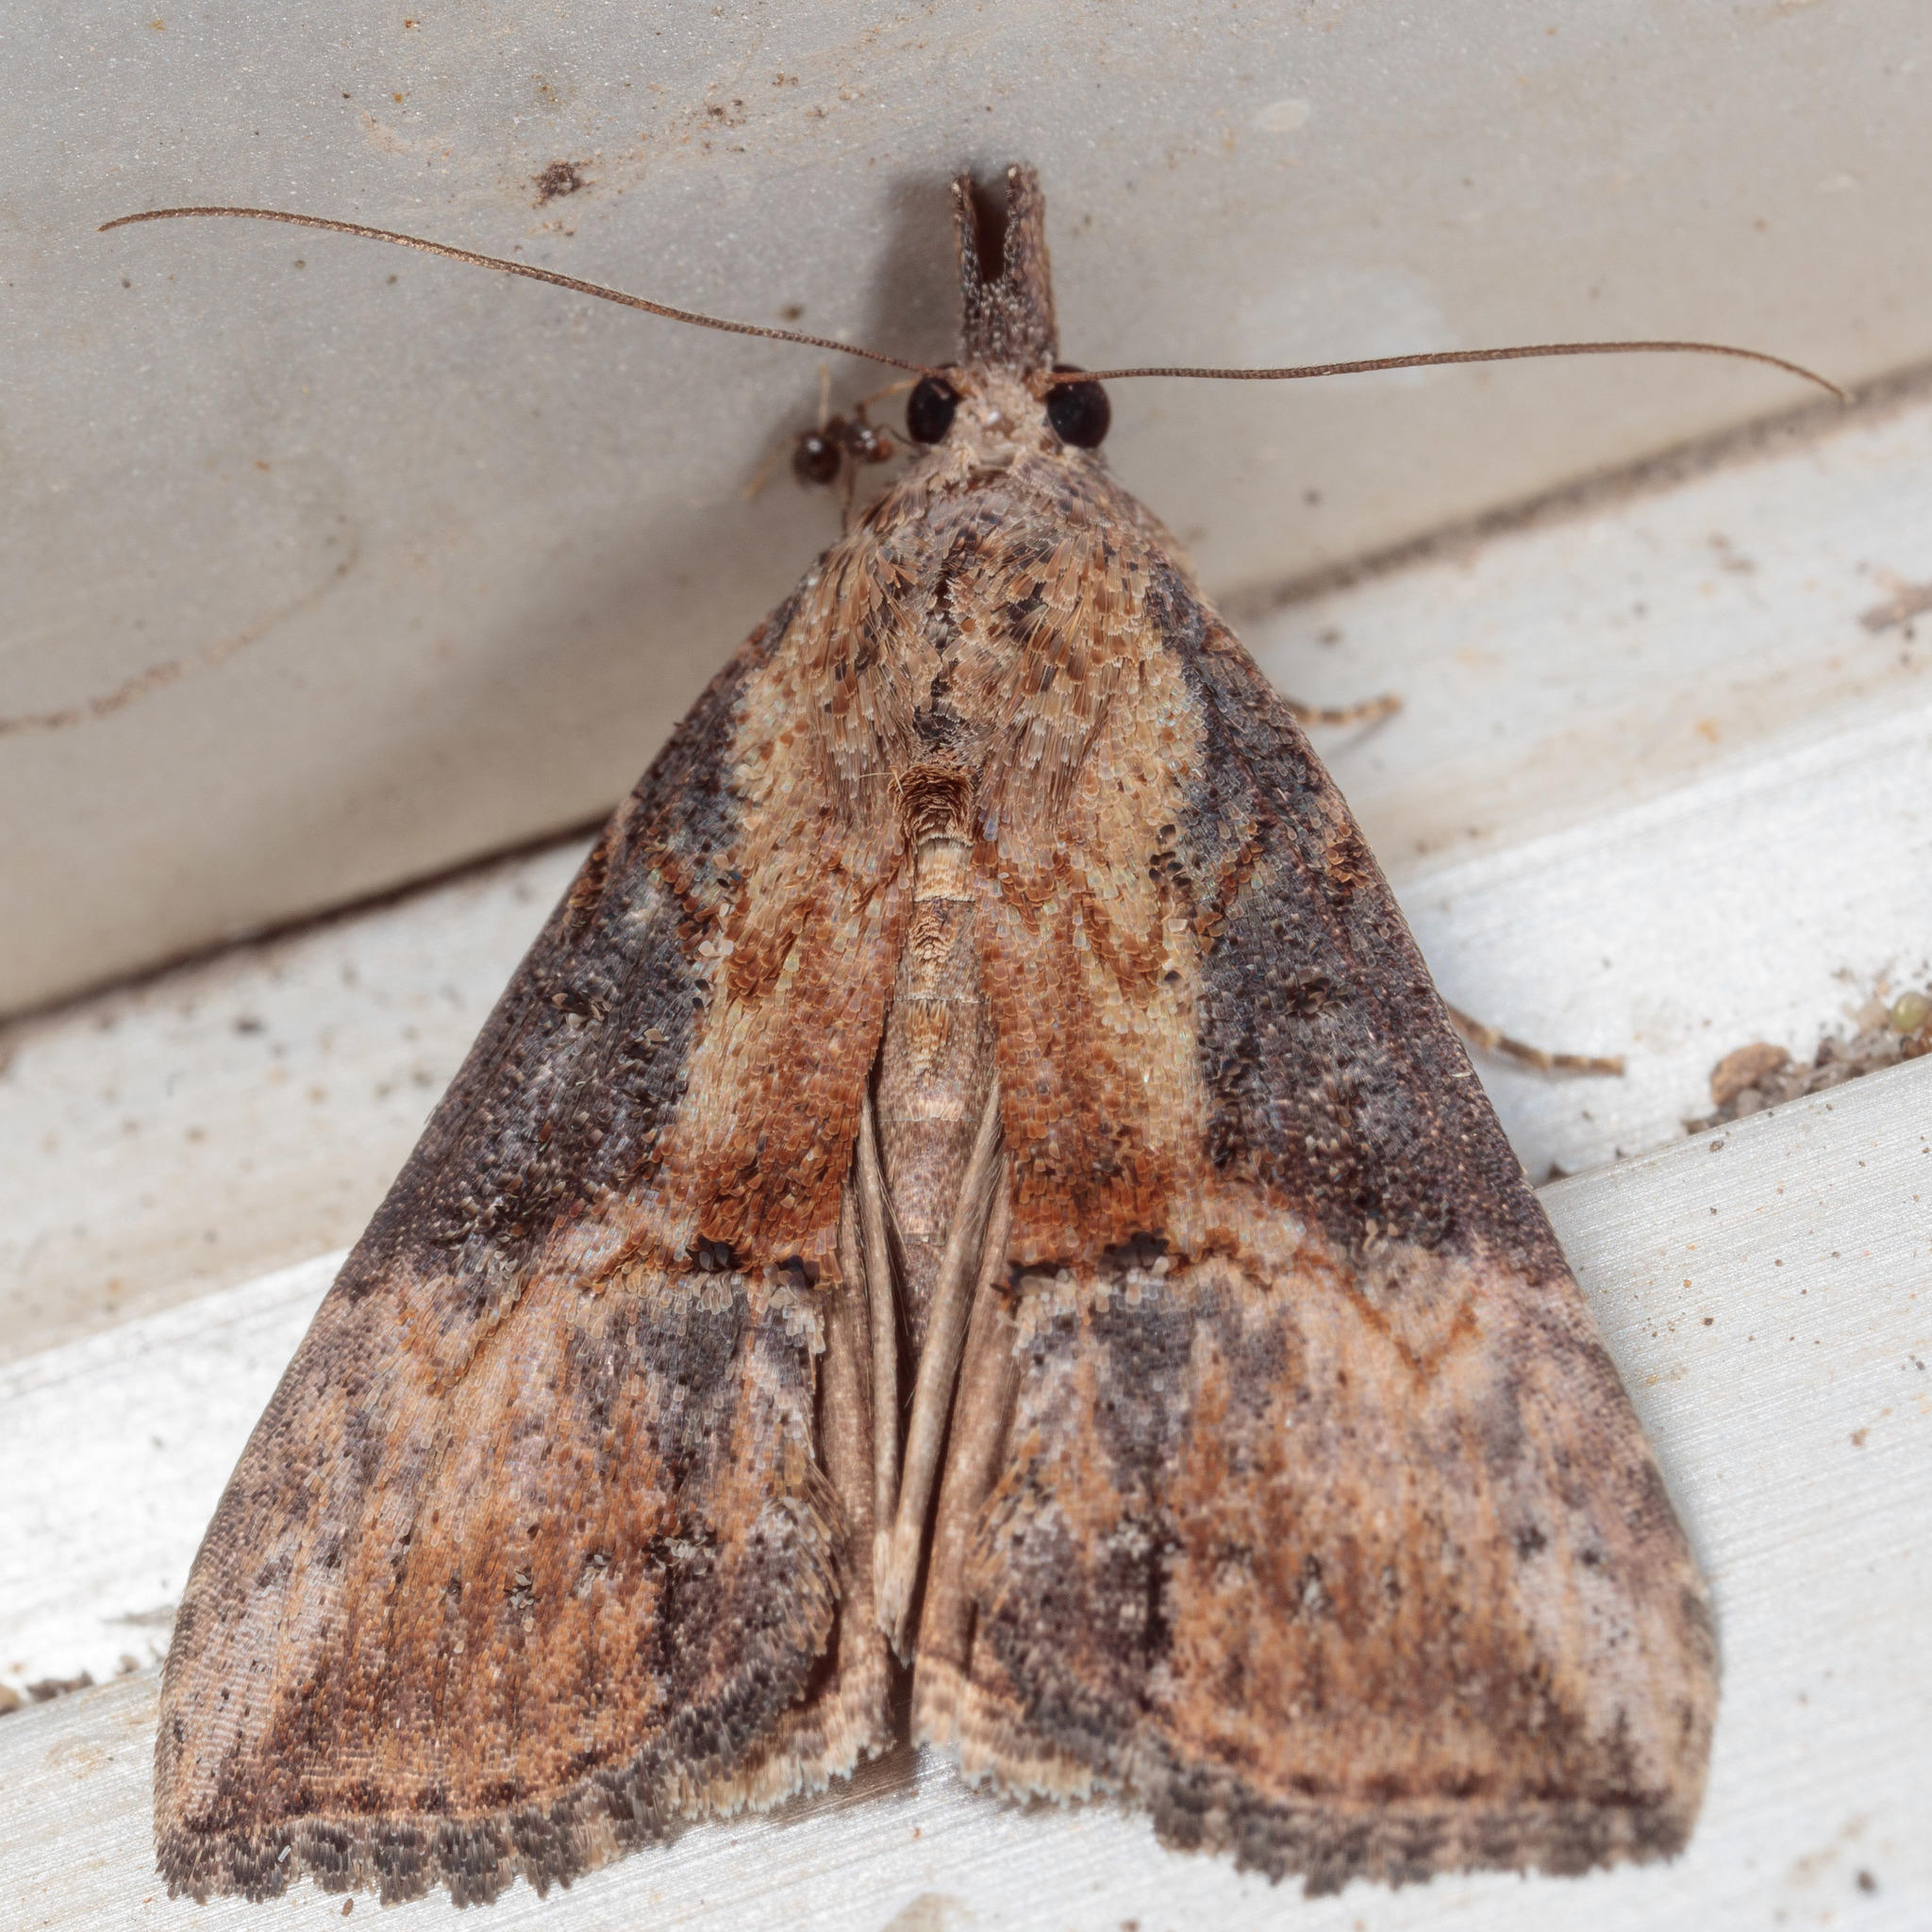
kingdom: Animalia
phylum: Arthropoda
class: Insecta
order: Lepidoptera
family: Erebidae
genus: Hypena
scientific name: Hypena scabra
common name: Green cloverworm
